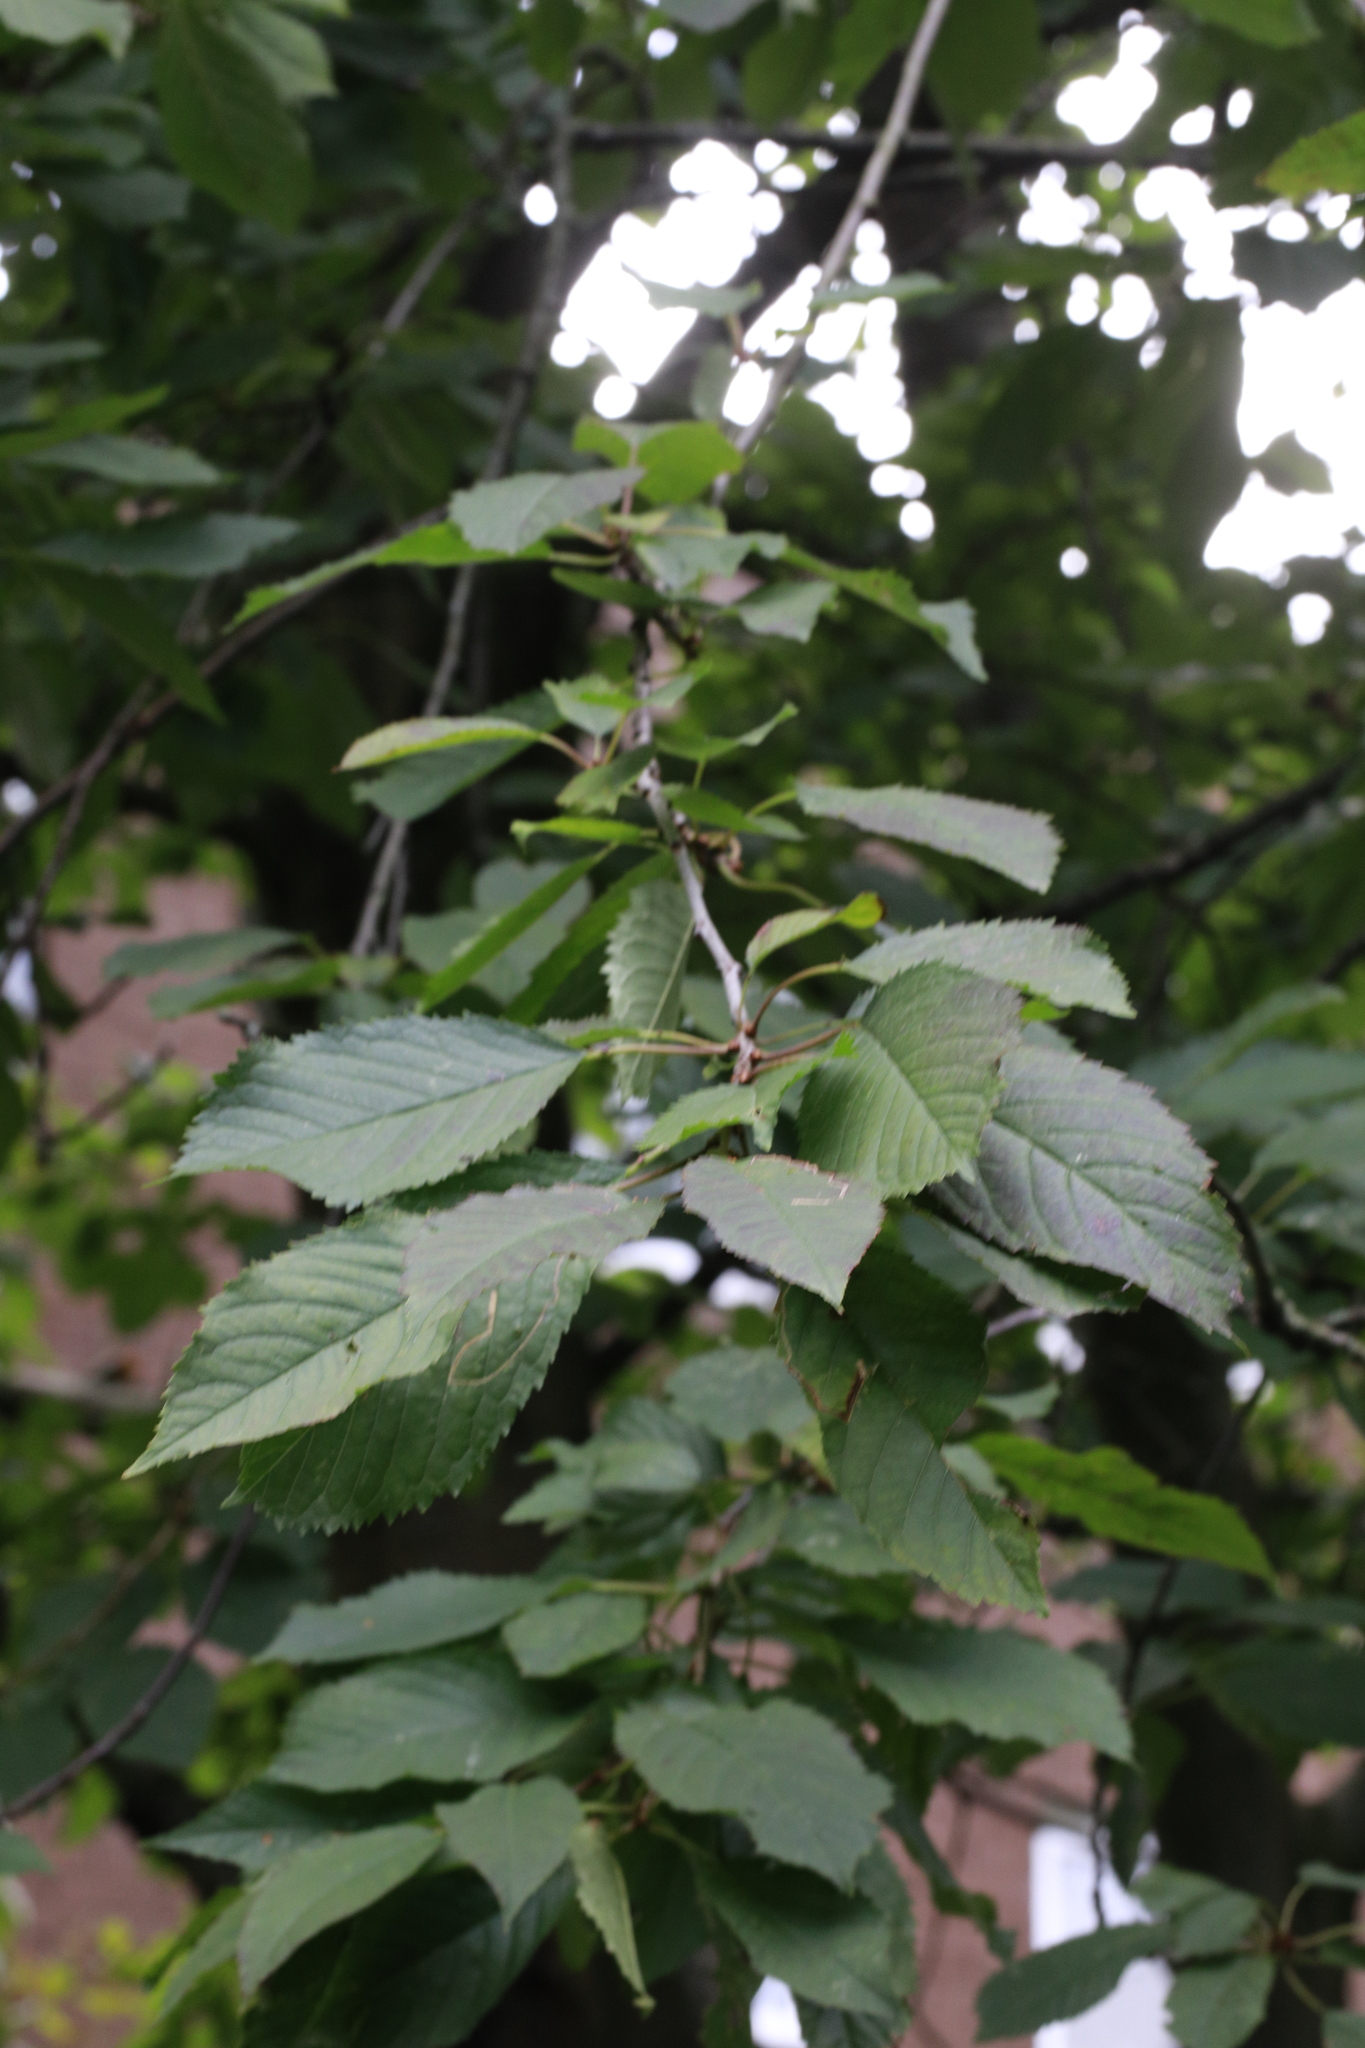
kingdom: Plantae
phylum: Tracheophyta
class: Magnoliopsida
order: Rosales
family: Rosaceae
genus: Prunus
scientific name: Prunus avium
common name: Sweet cherry
